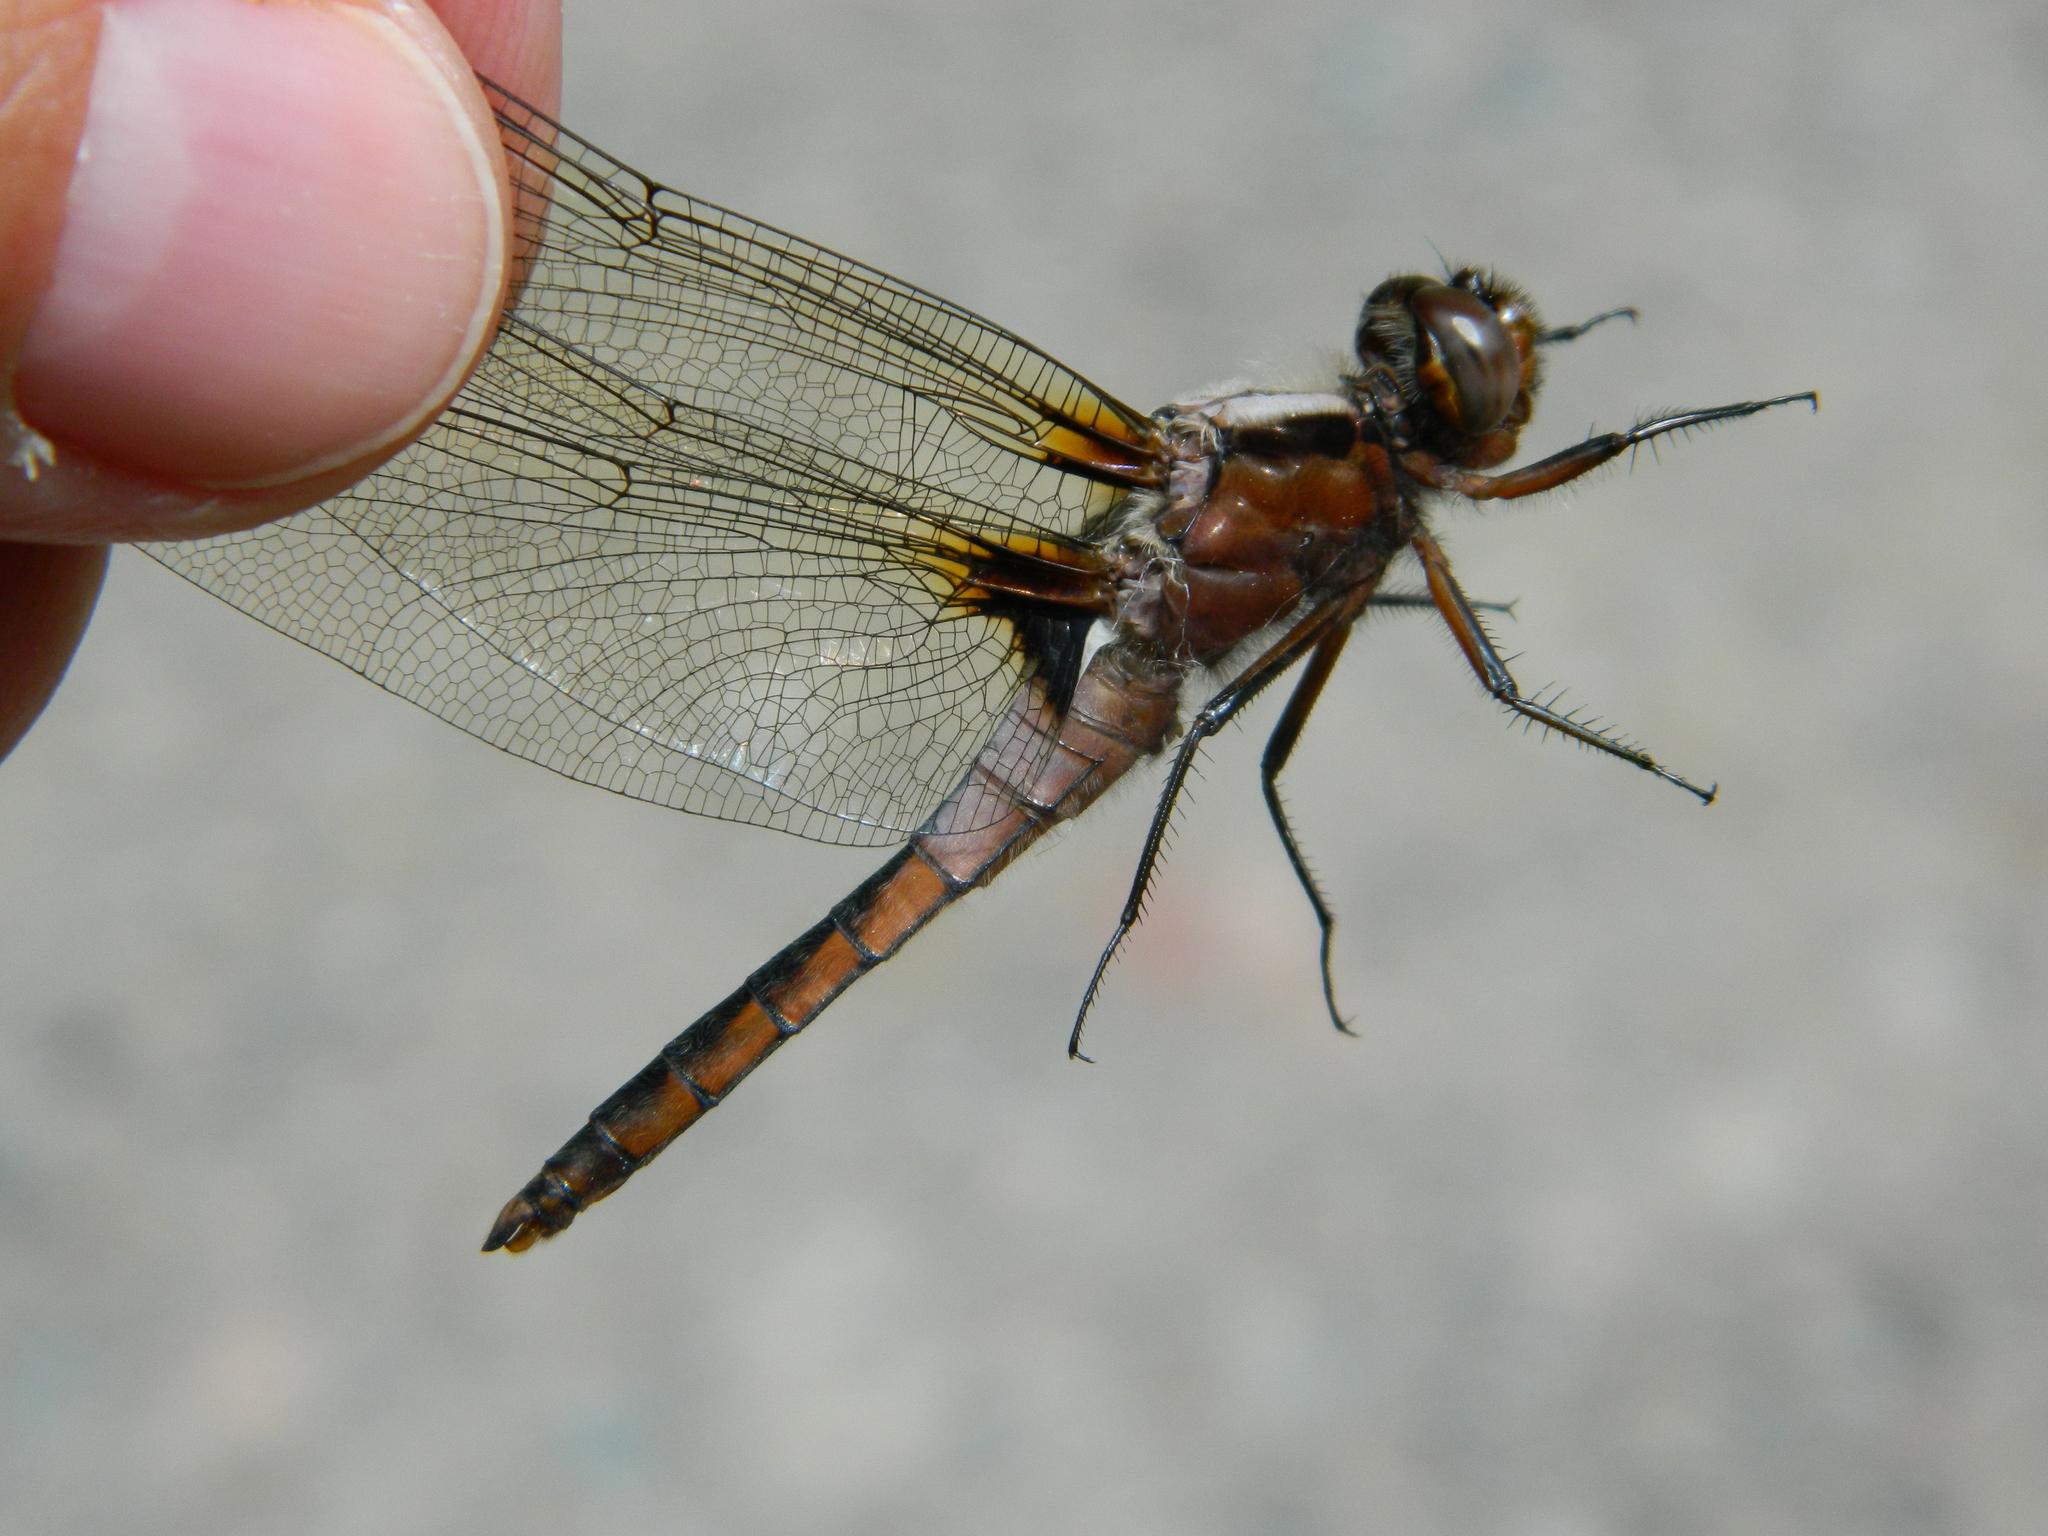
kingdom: Animalia
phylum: Arthropoda
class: Insecta
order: Odonata
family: Libellulidae
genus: Ladona
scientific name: Ladona julia
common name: Chalk-fronted corporal
